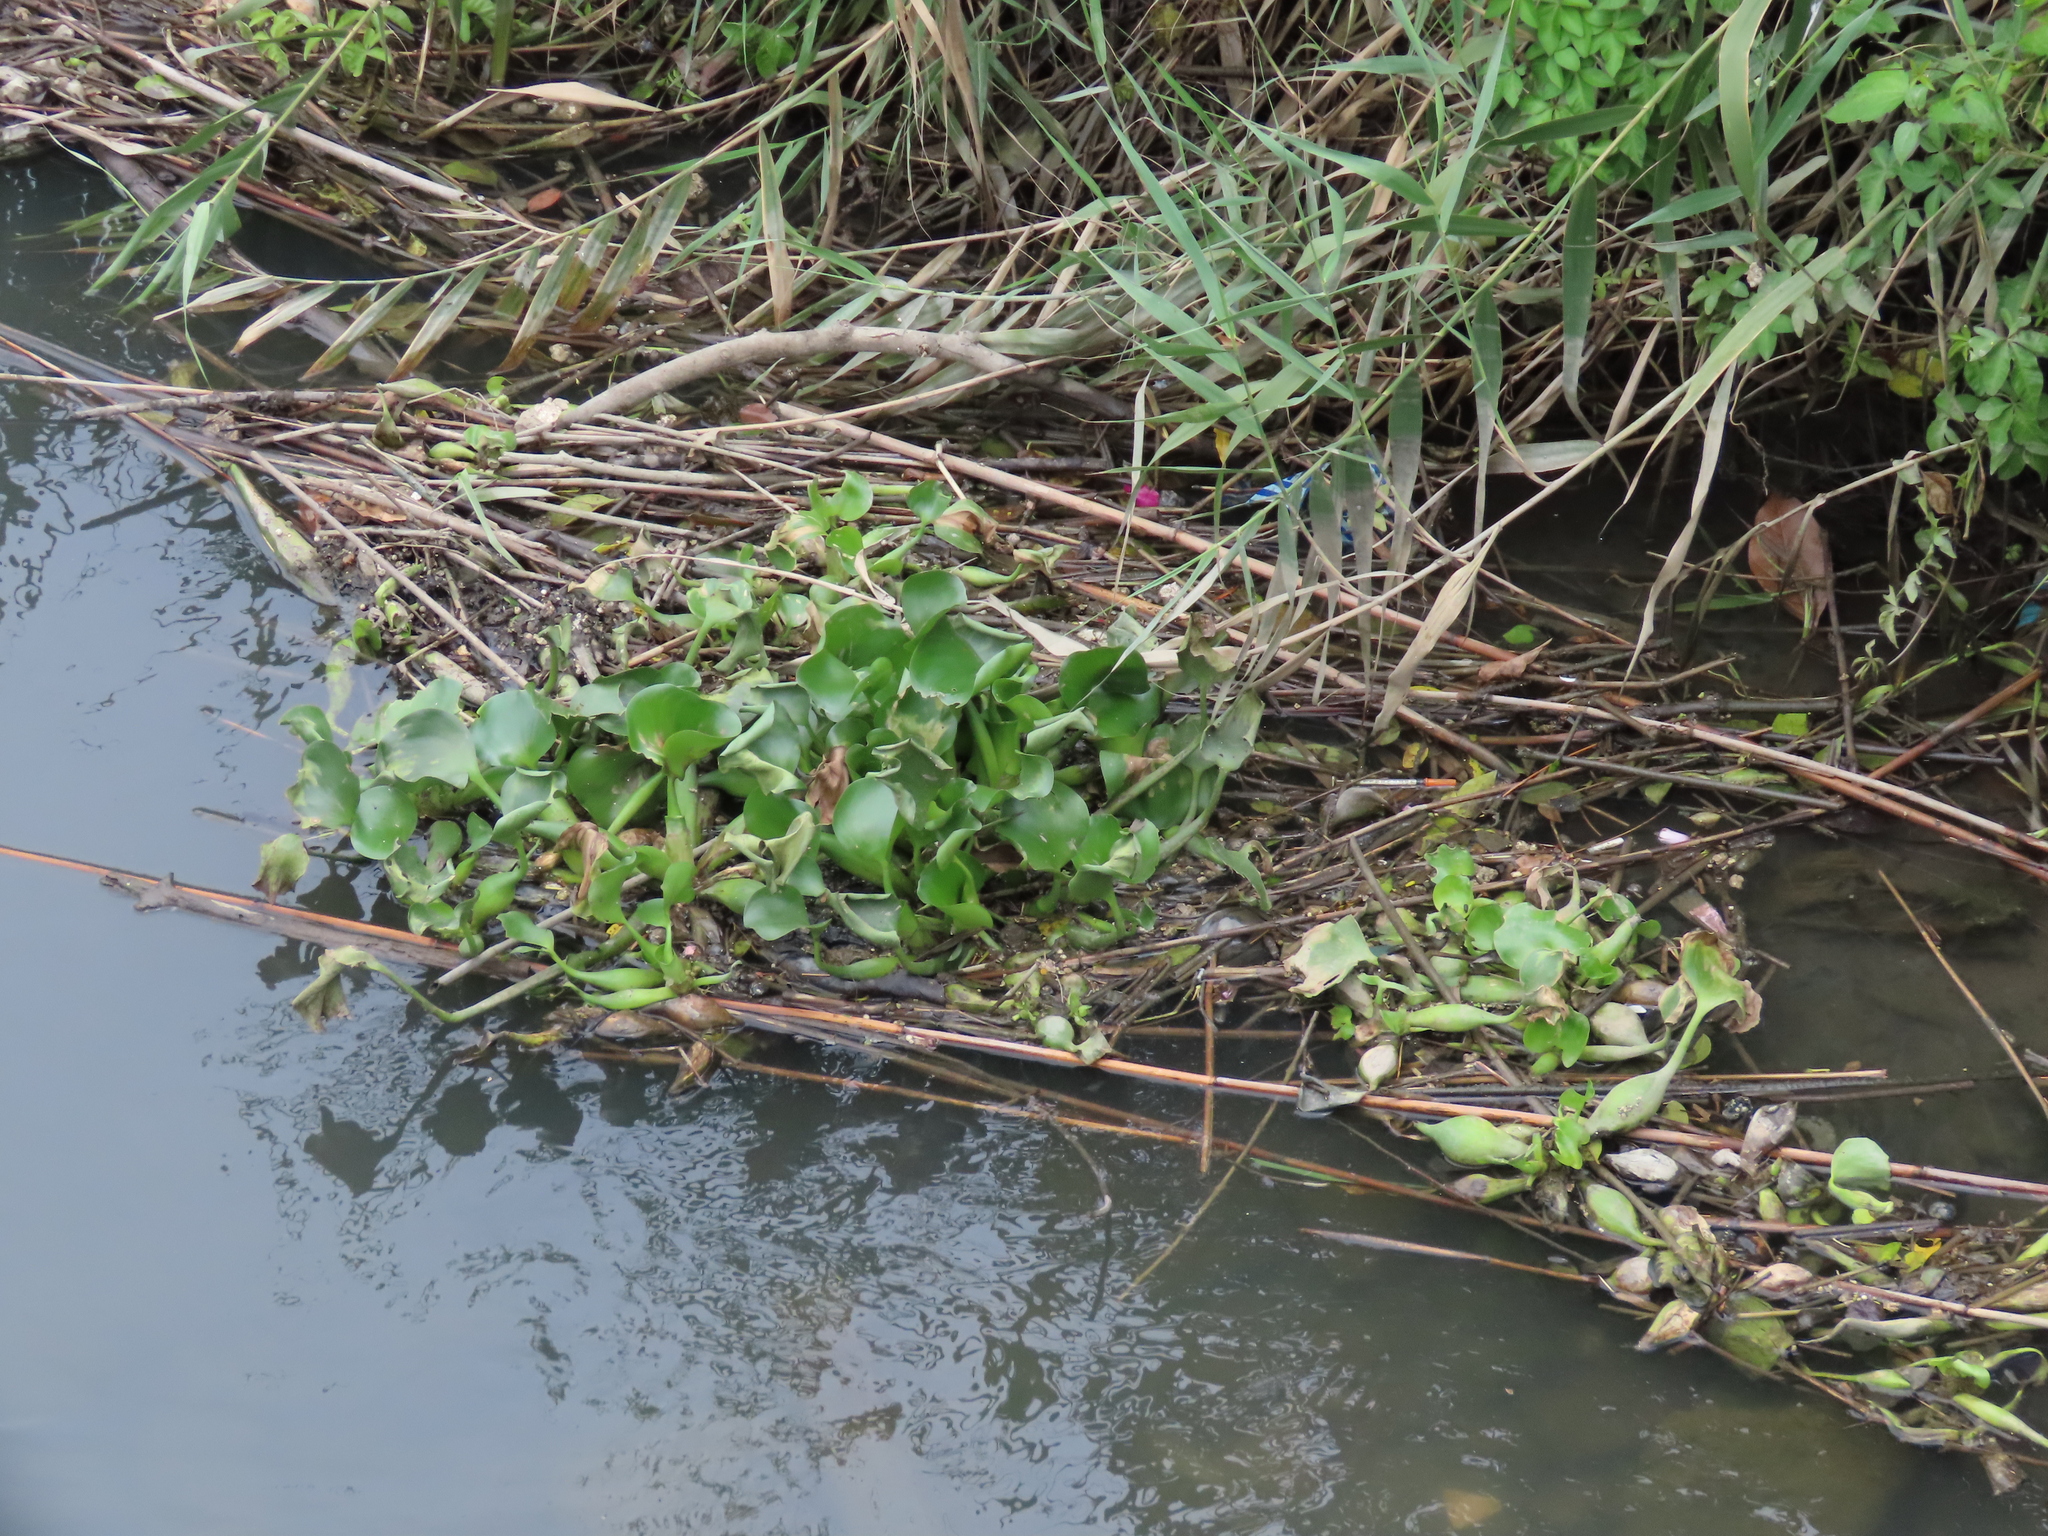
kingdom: Plantae
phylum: Tracheophyta
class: Liliopsida
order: Commelinales
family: Pontederiaceae
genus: Pontederia
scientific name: Pontederia crassipes
